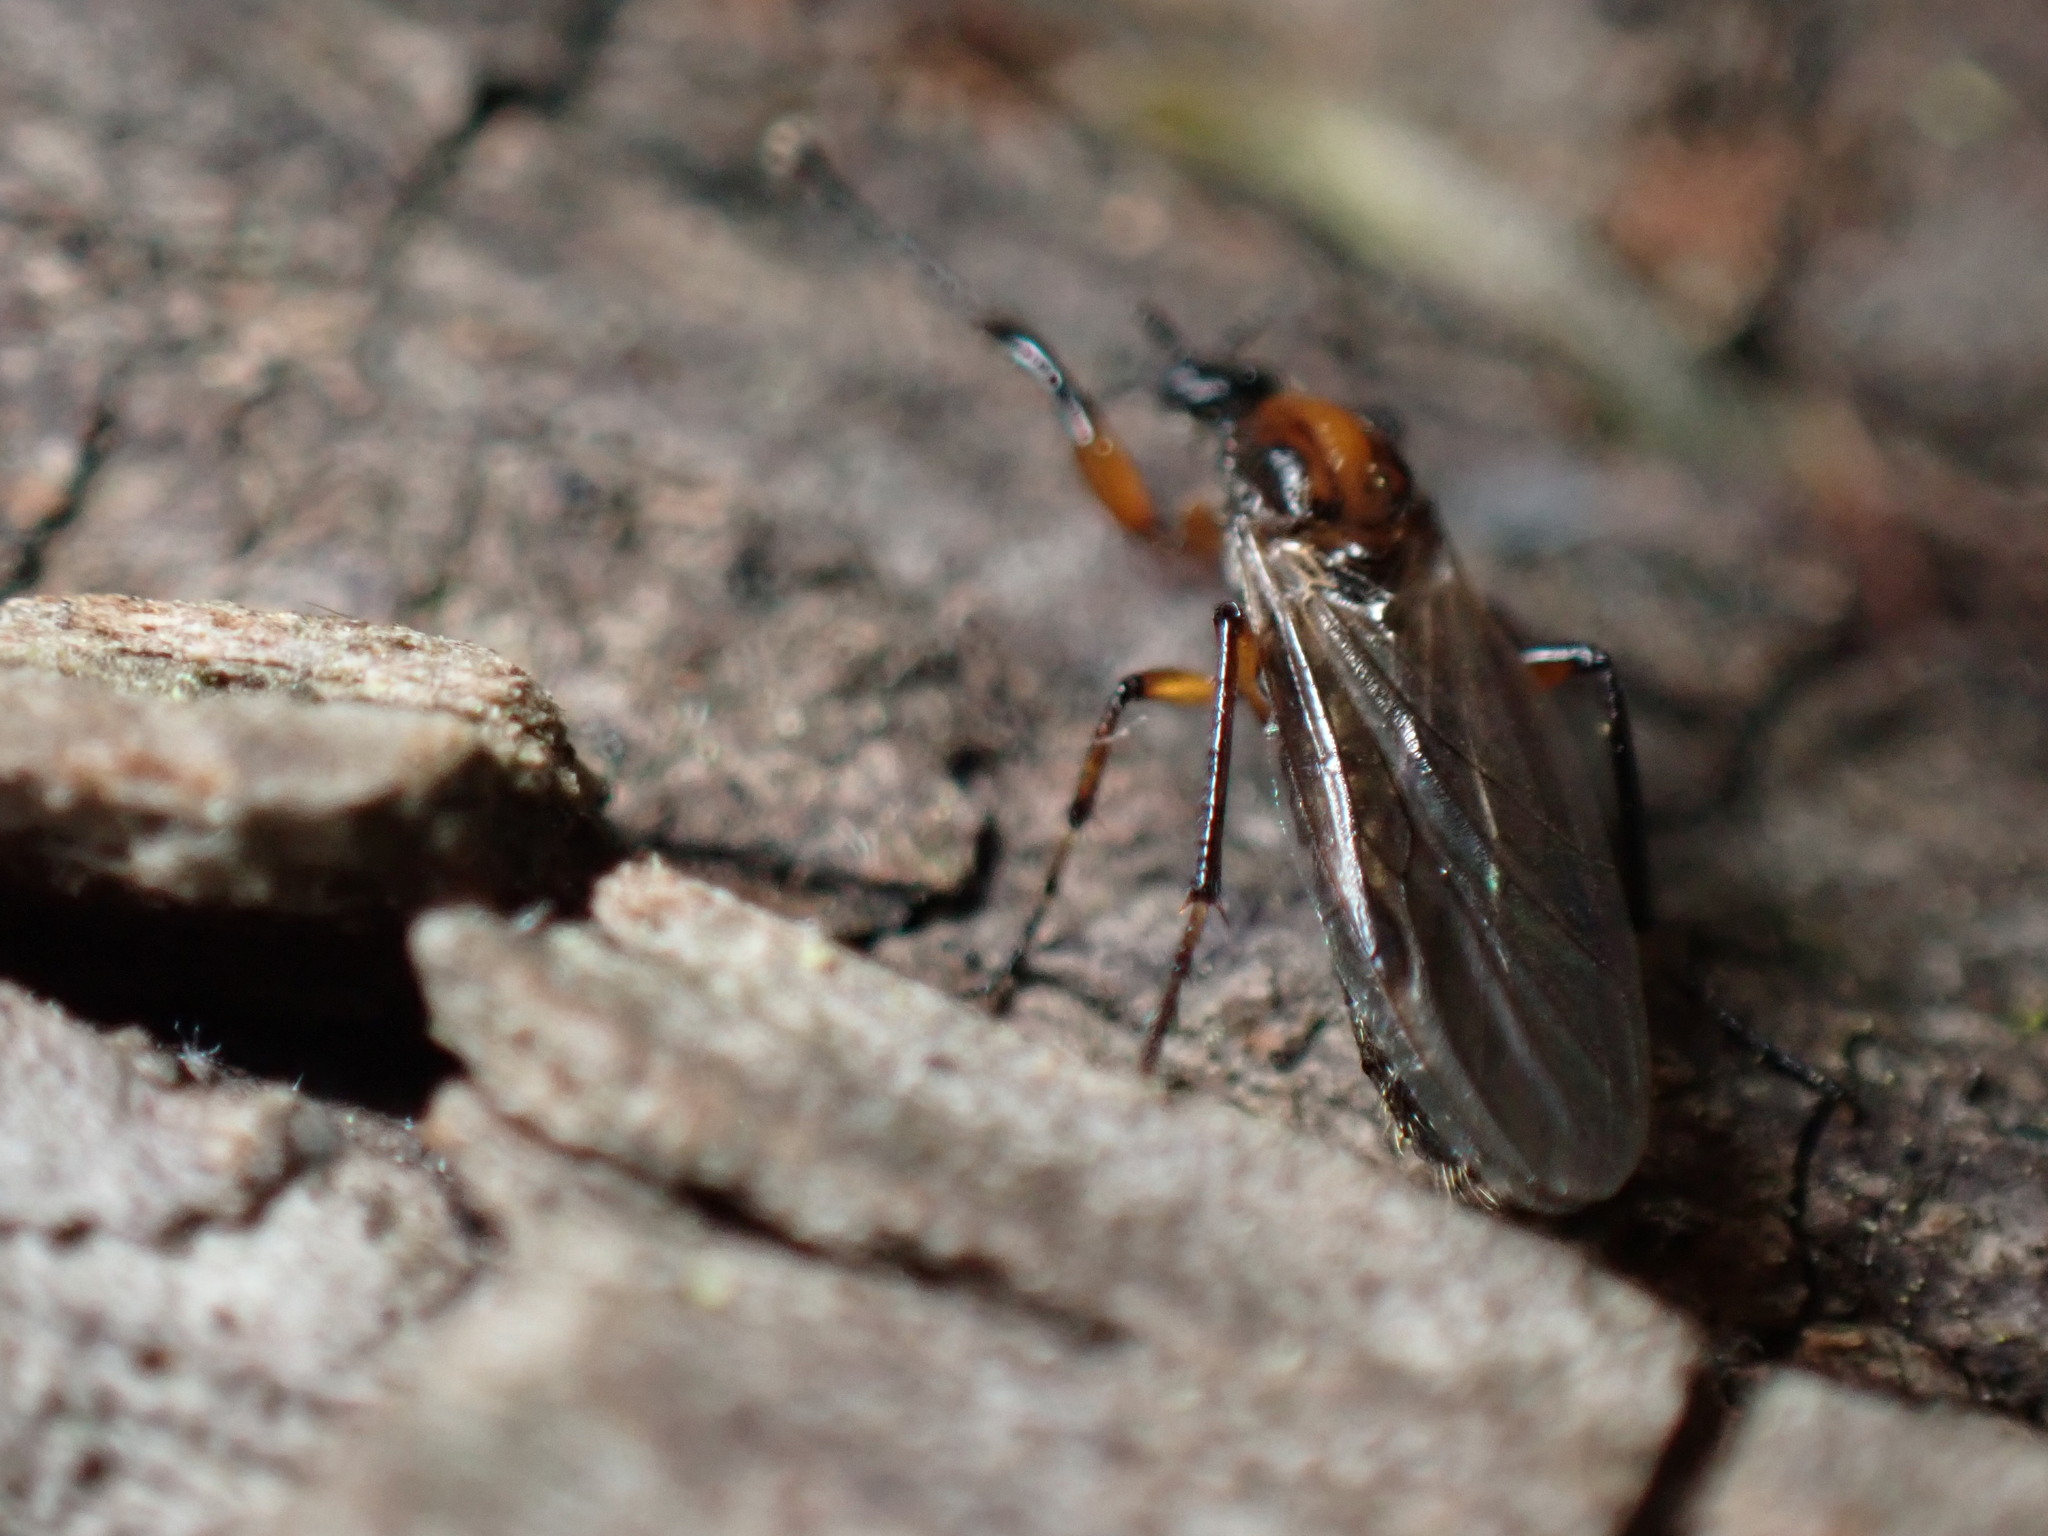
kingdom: Animalia
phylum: Arthropoda
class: Insecta
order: Diptera
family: Bibionidae
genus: Bibio
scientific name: Bibio articulatus
